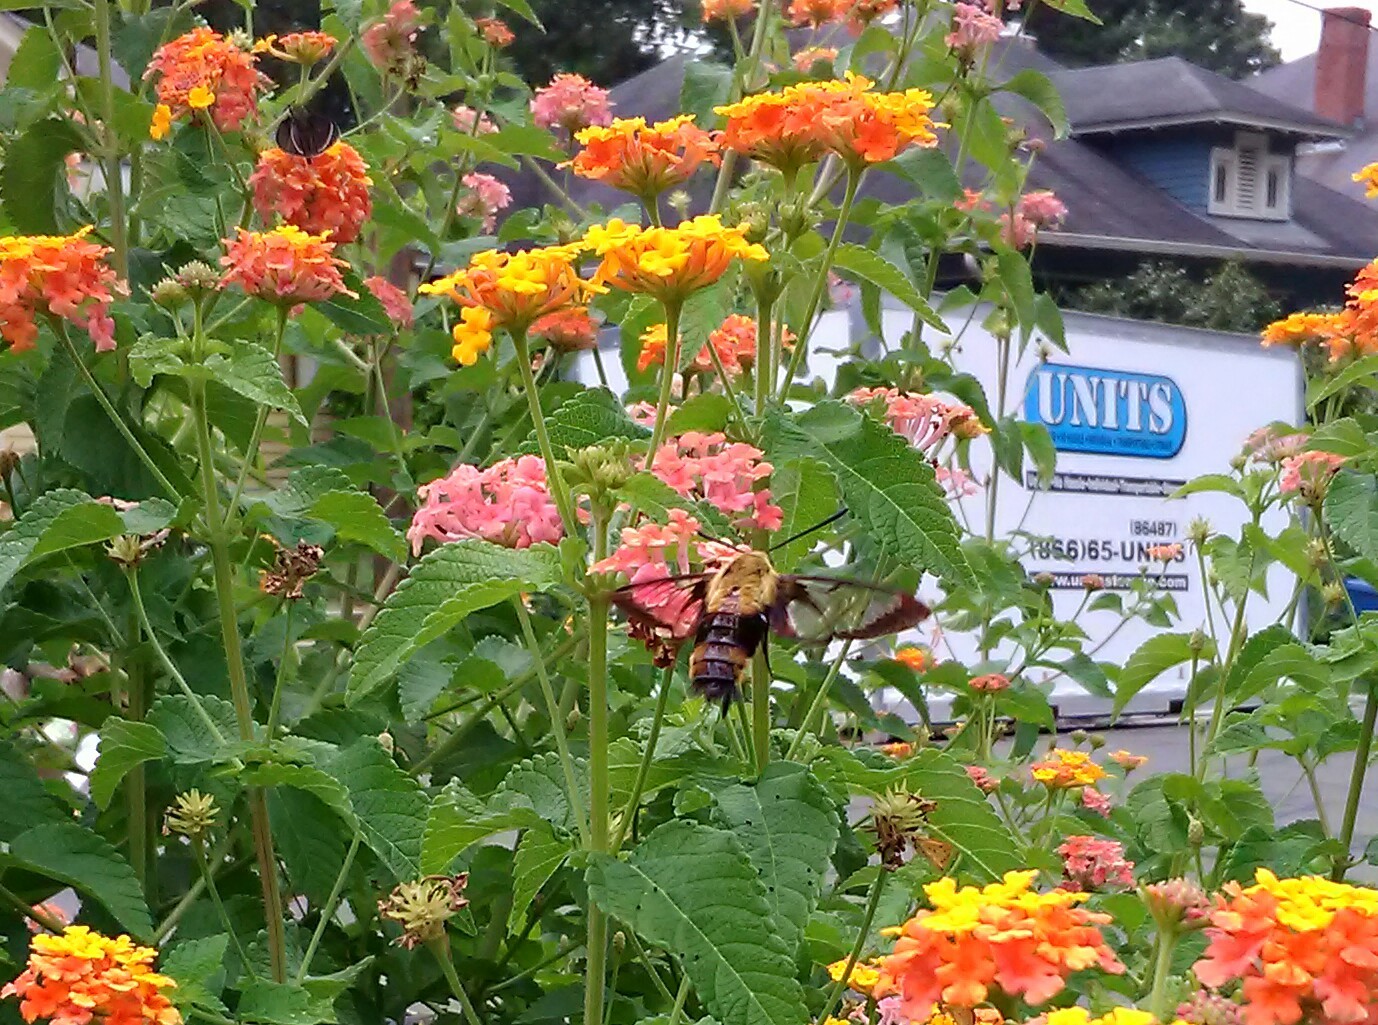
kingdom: Animalia
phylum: Arthropoda
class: Insecta
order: Lepidoptera
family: Sphingidae
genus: Hemaris
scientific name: Hemaris diffinis
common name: Bumblebee moth
